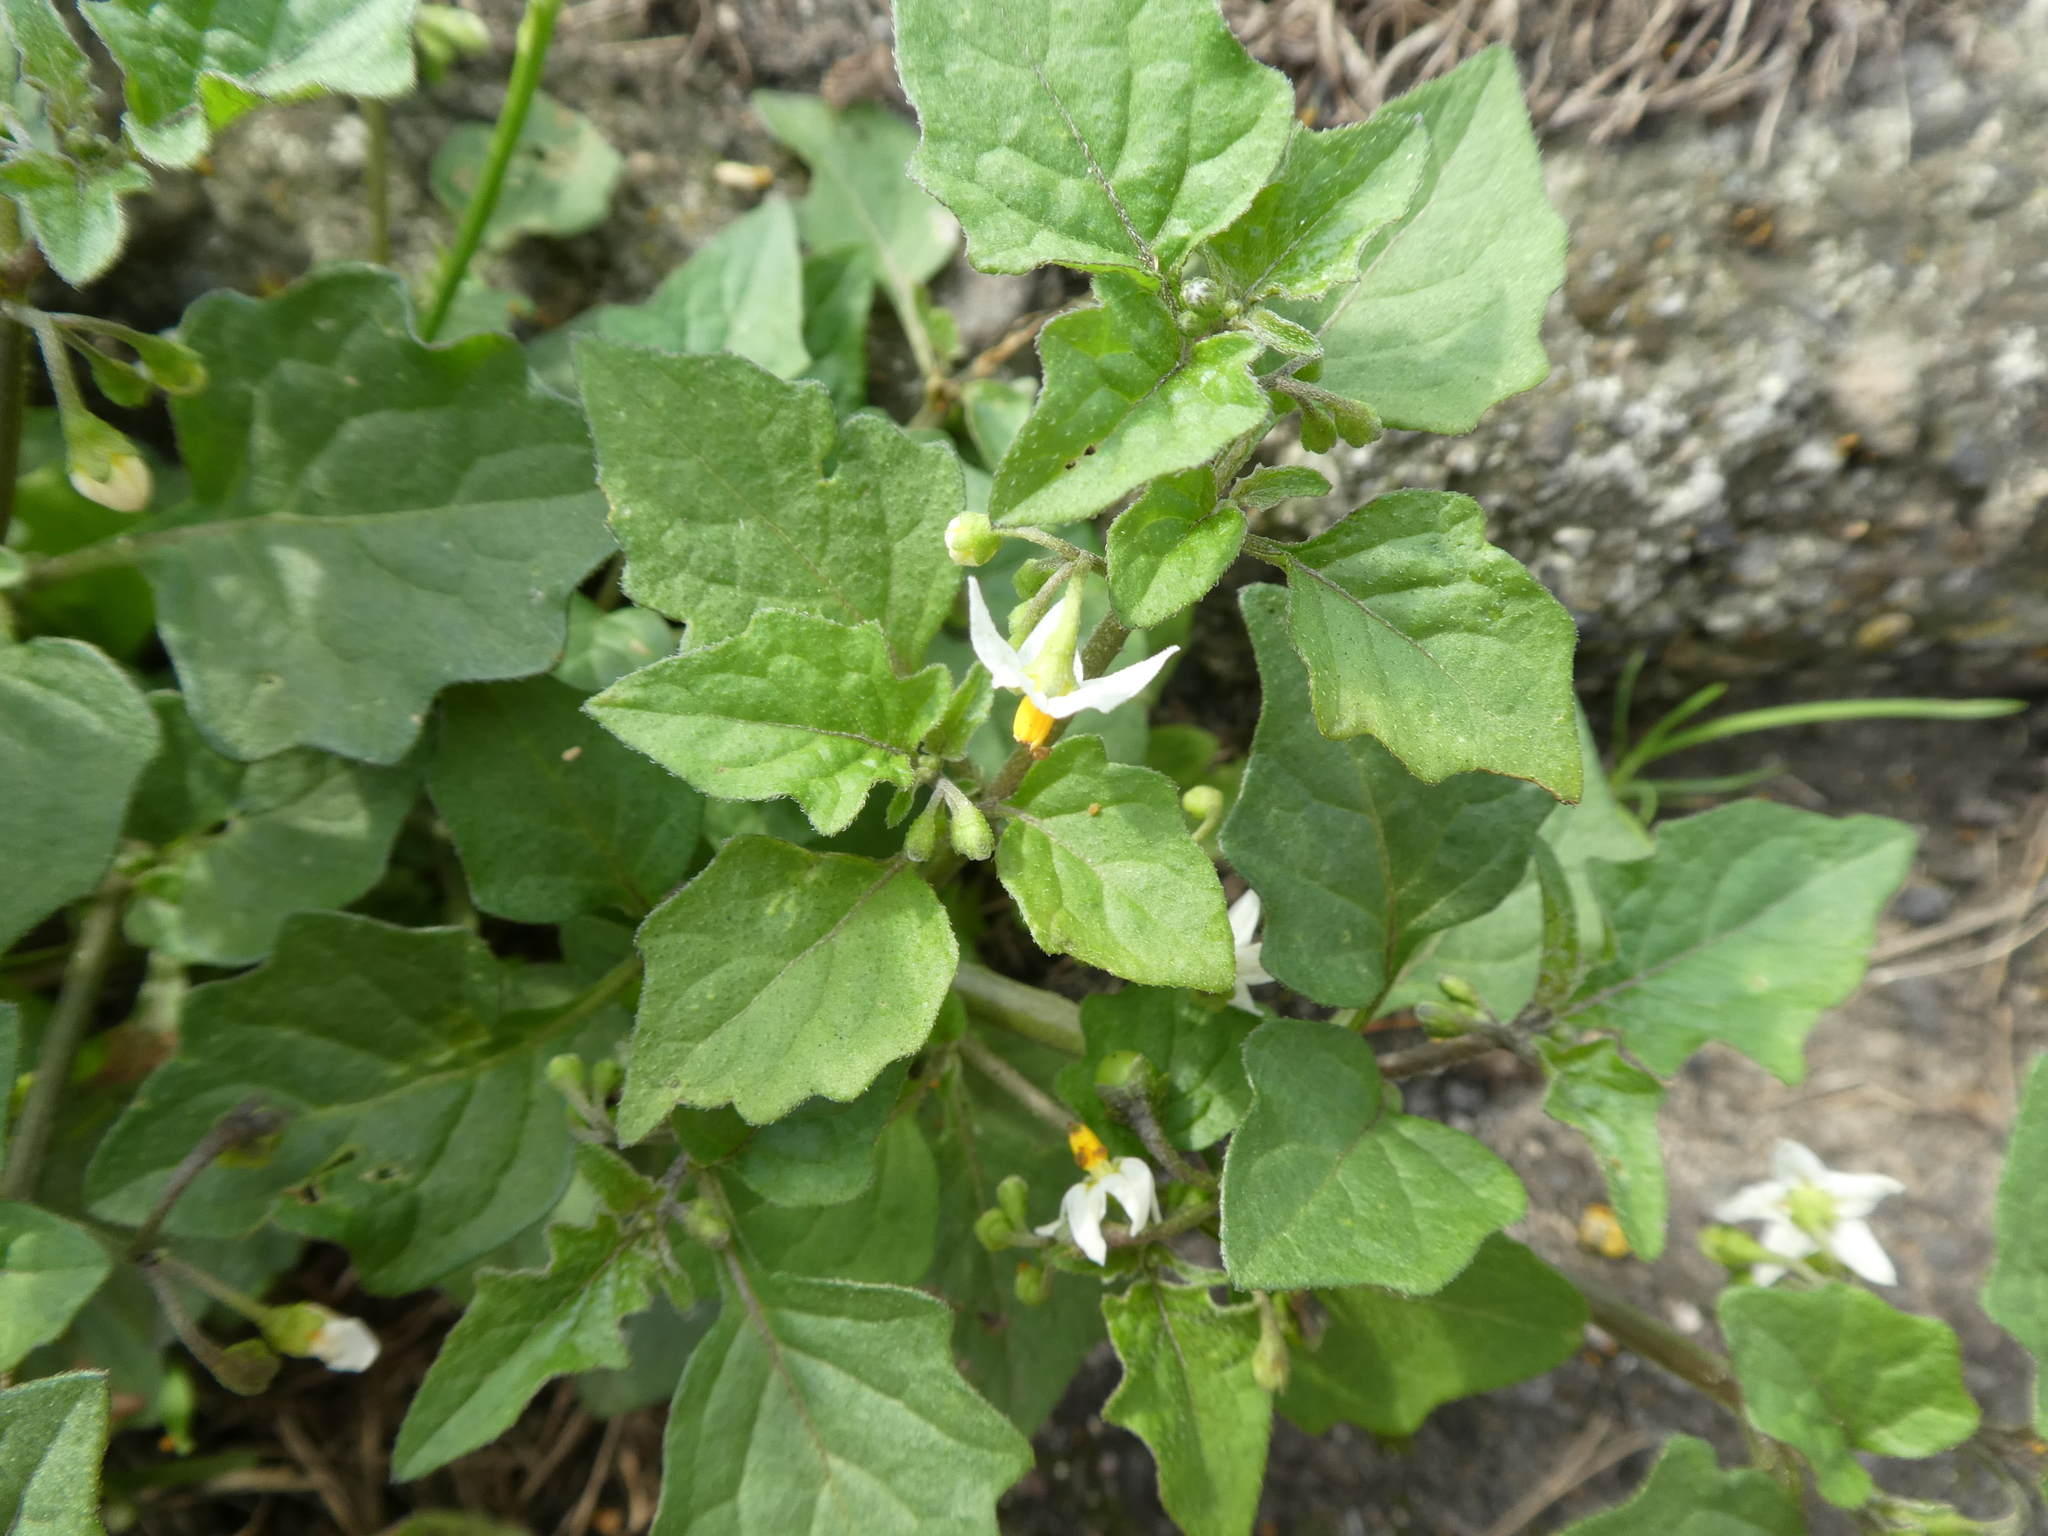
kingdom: Plantae
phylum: Tracheophyta
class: Magnoliopsida
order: Solanales
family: Solanaceae
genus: Solanum
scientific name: Solanum nigrum
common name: Black nightshade
